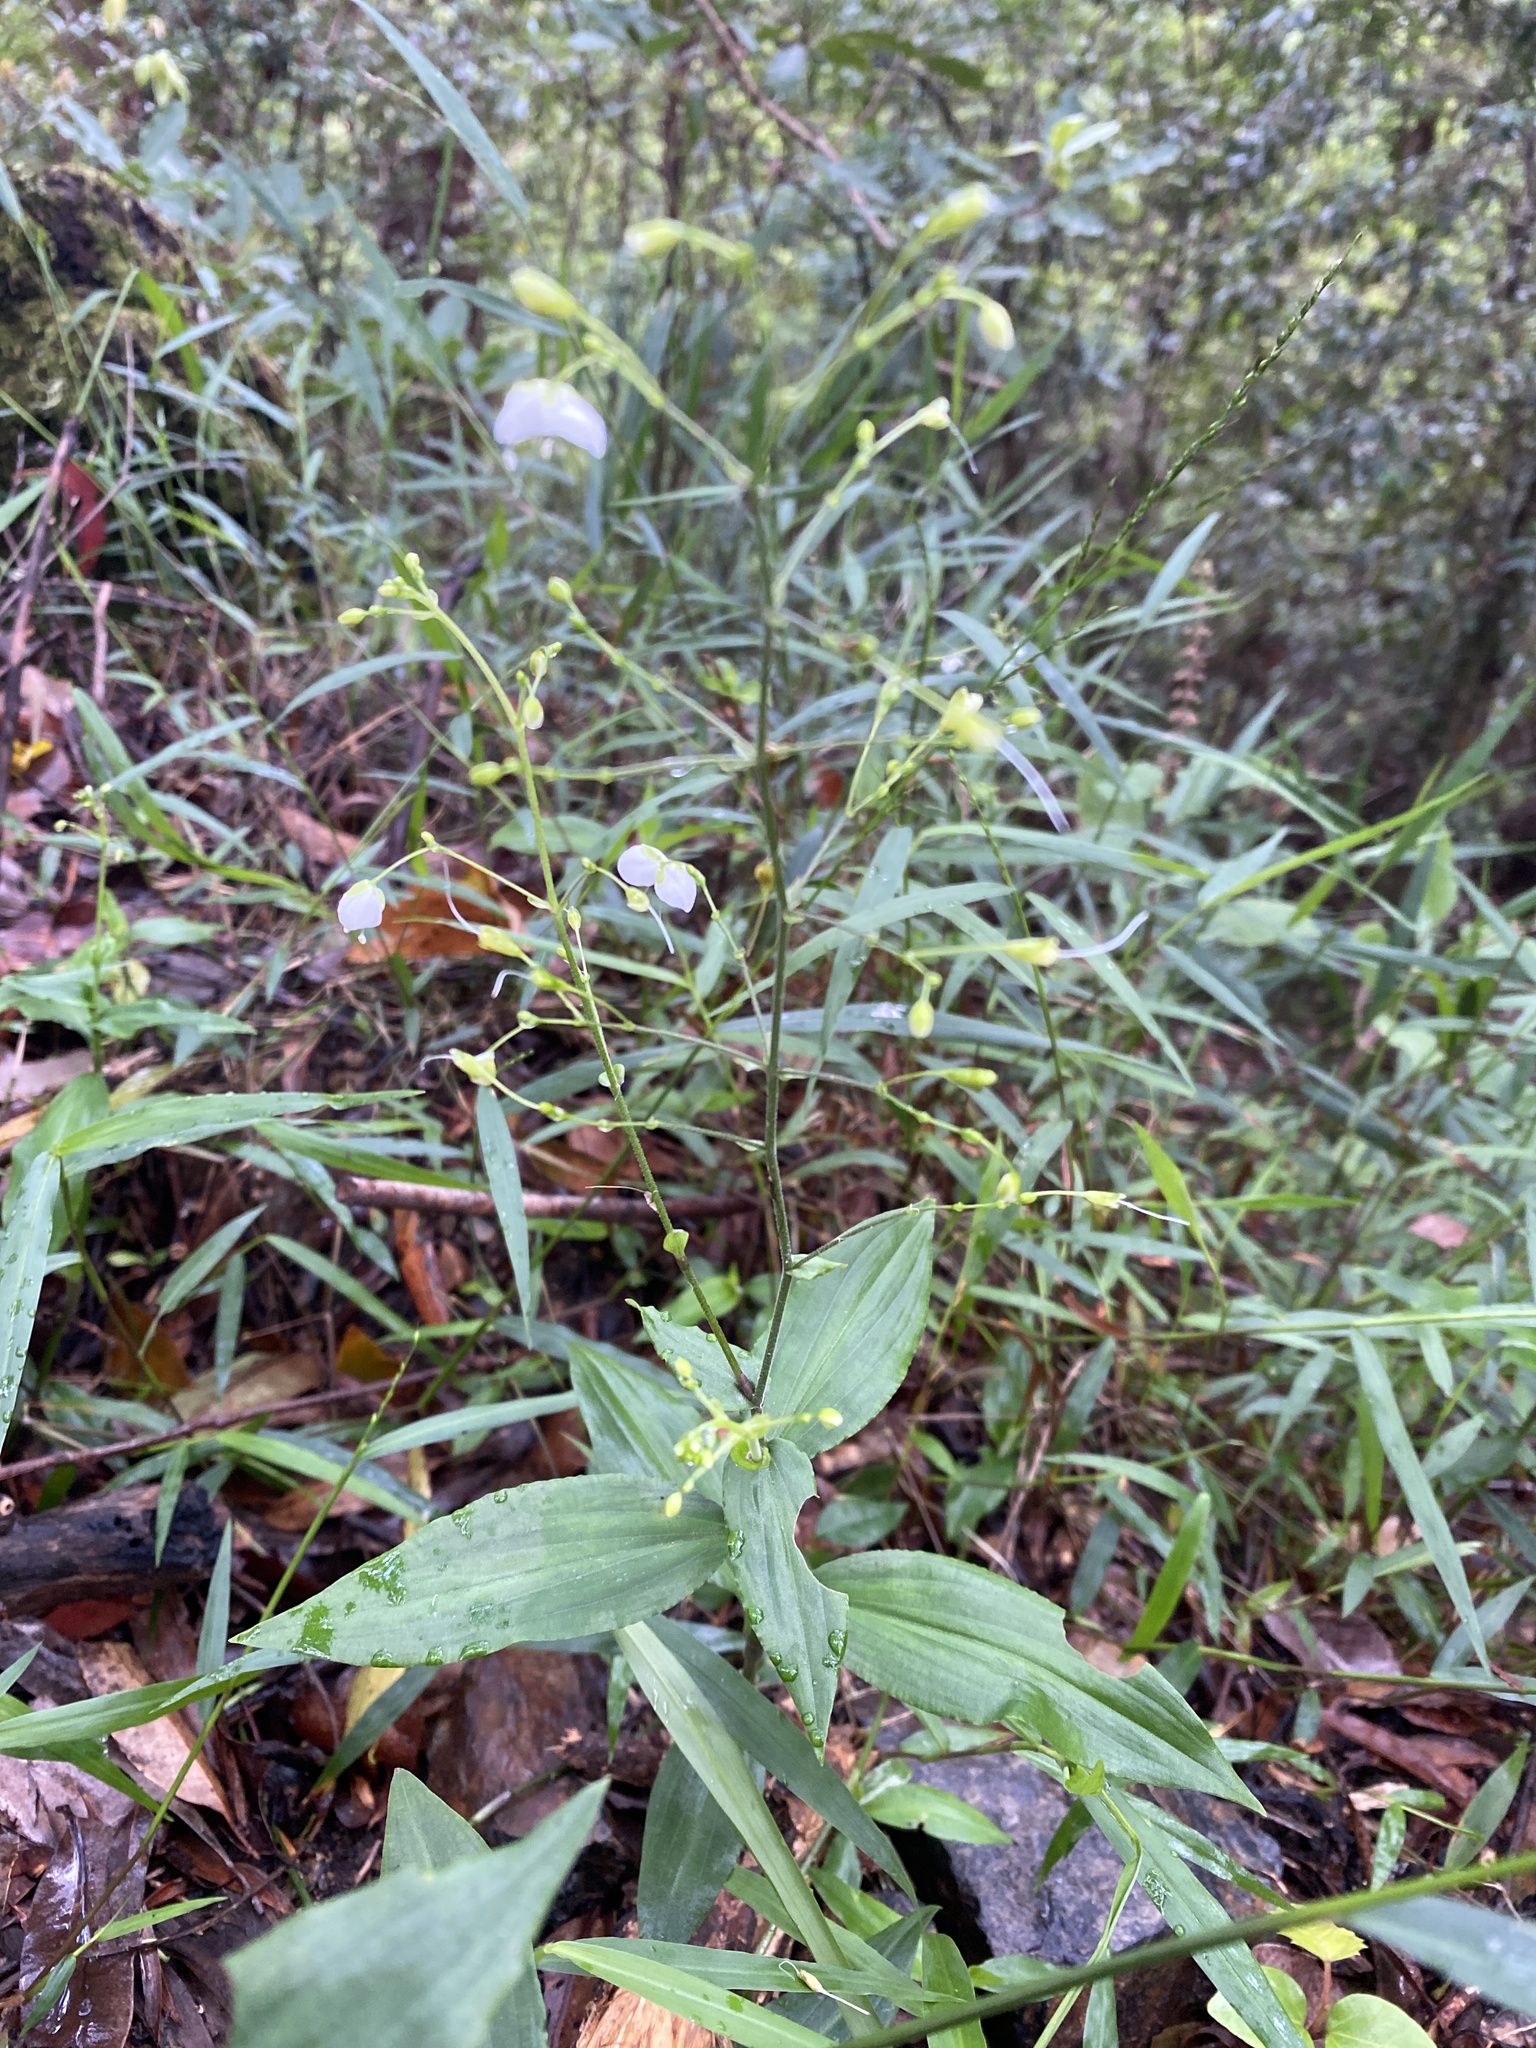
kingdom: Plantae
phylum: Tracheophyta
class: Liliopsida
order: Commelinales
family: Commelinaceae
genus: Aneilema
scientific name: Aneilema acuminatum
